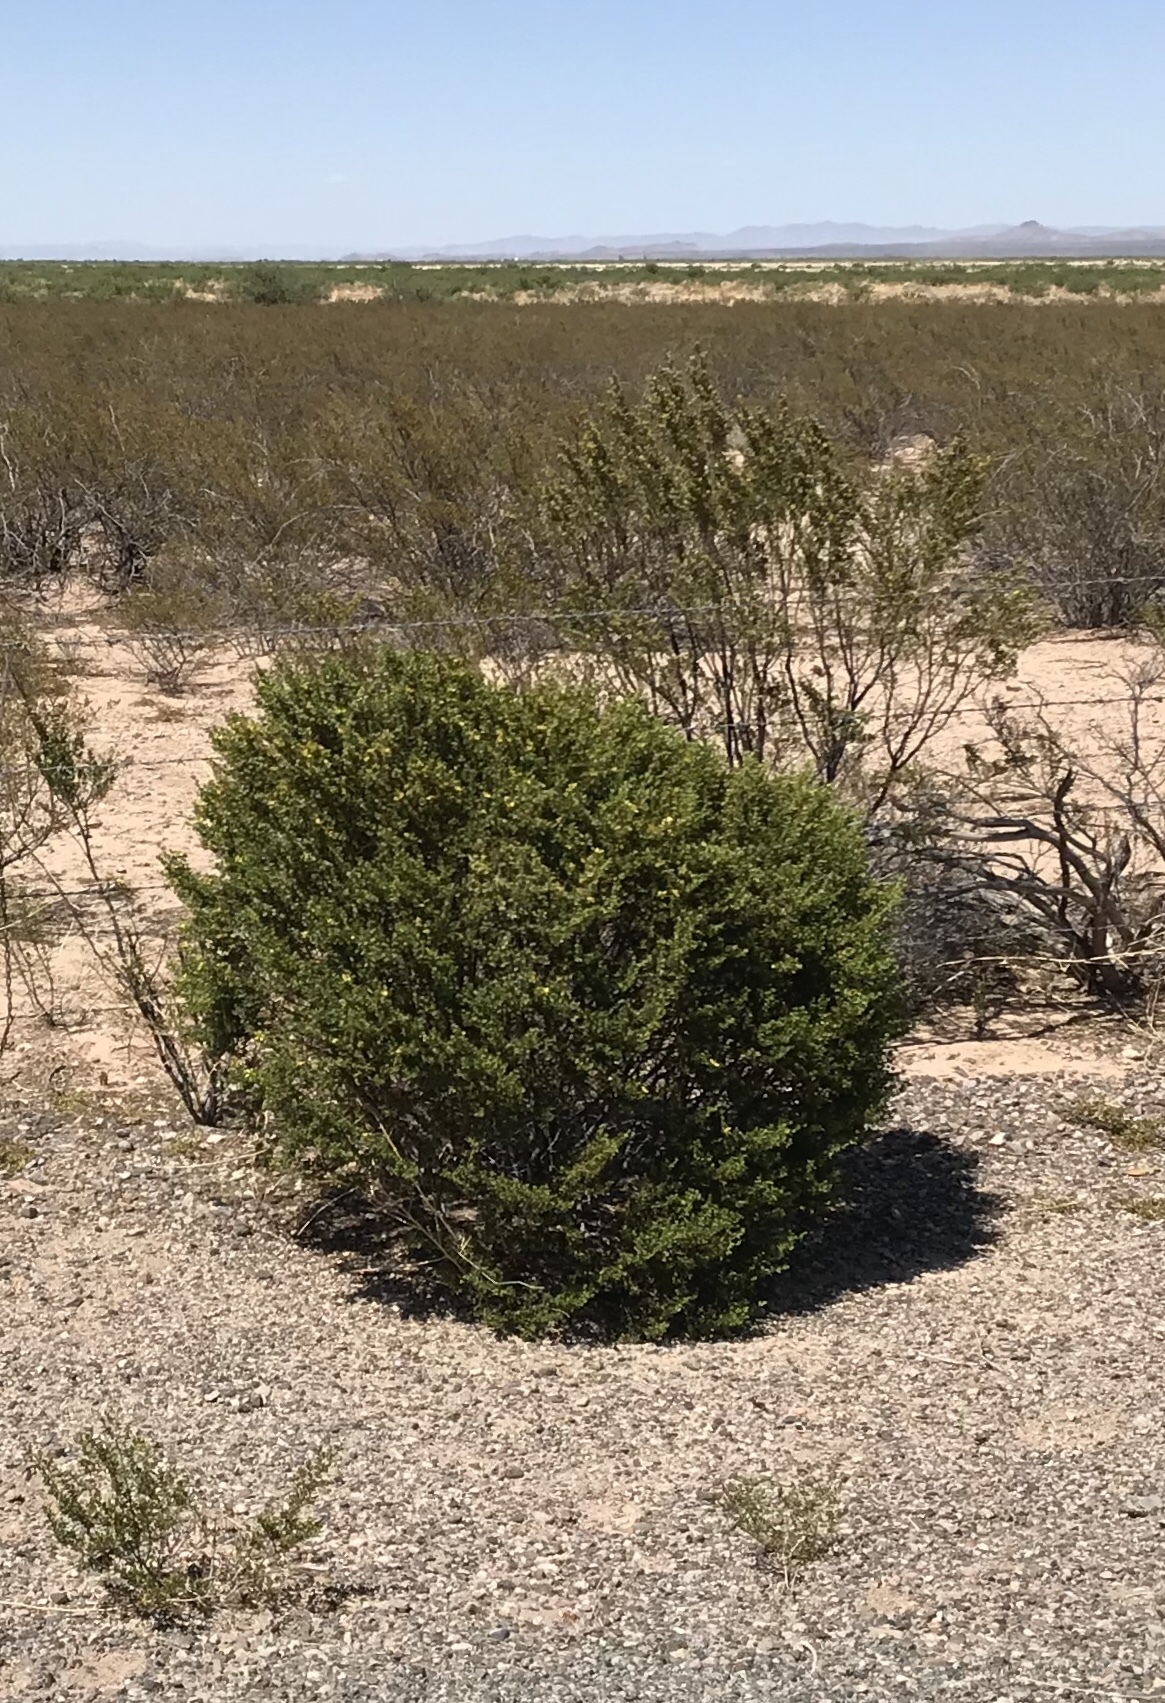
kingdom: Plantae
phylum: Tracheophyta
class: Magnoliopsida
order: Zygophyllales
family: Zygophyllaceae
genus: Larrea
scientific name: Larrea tridentata
